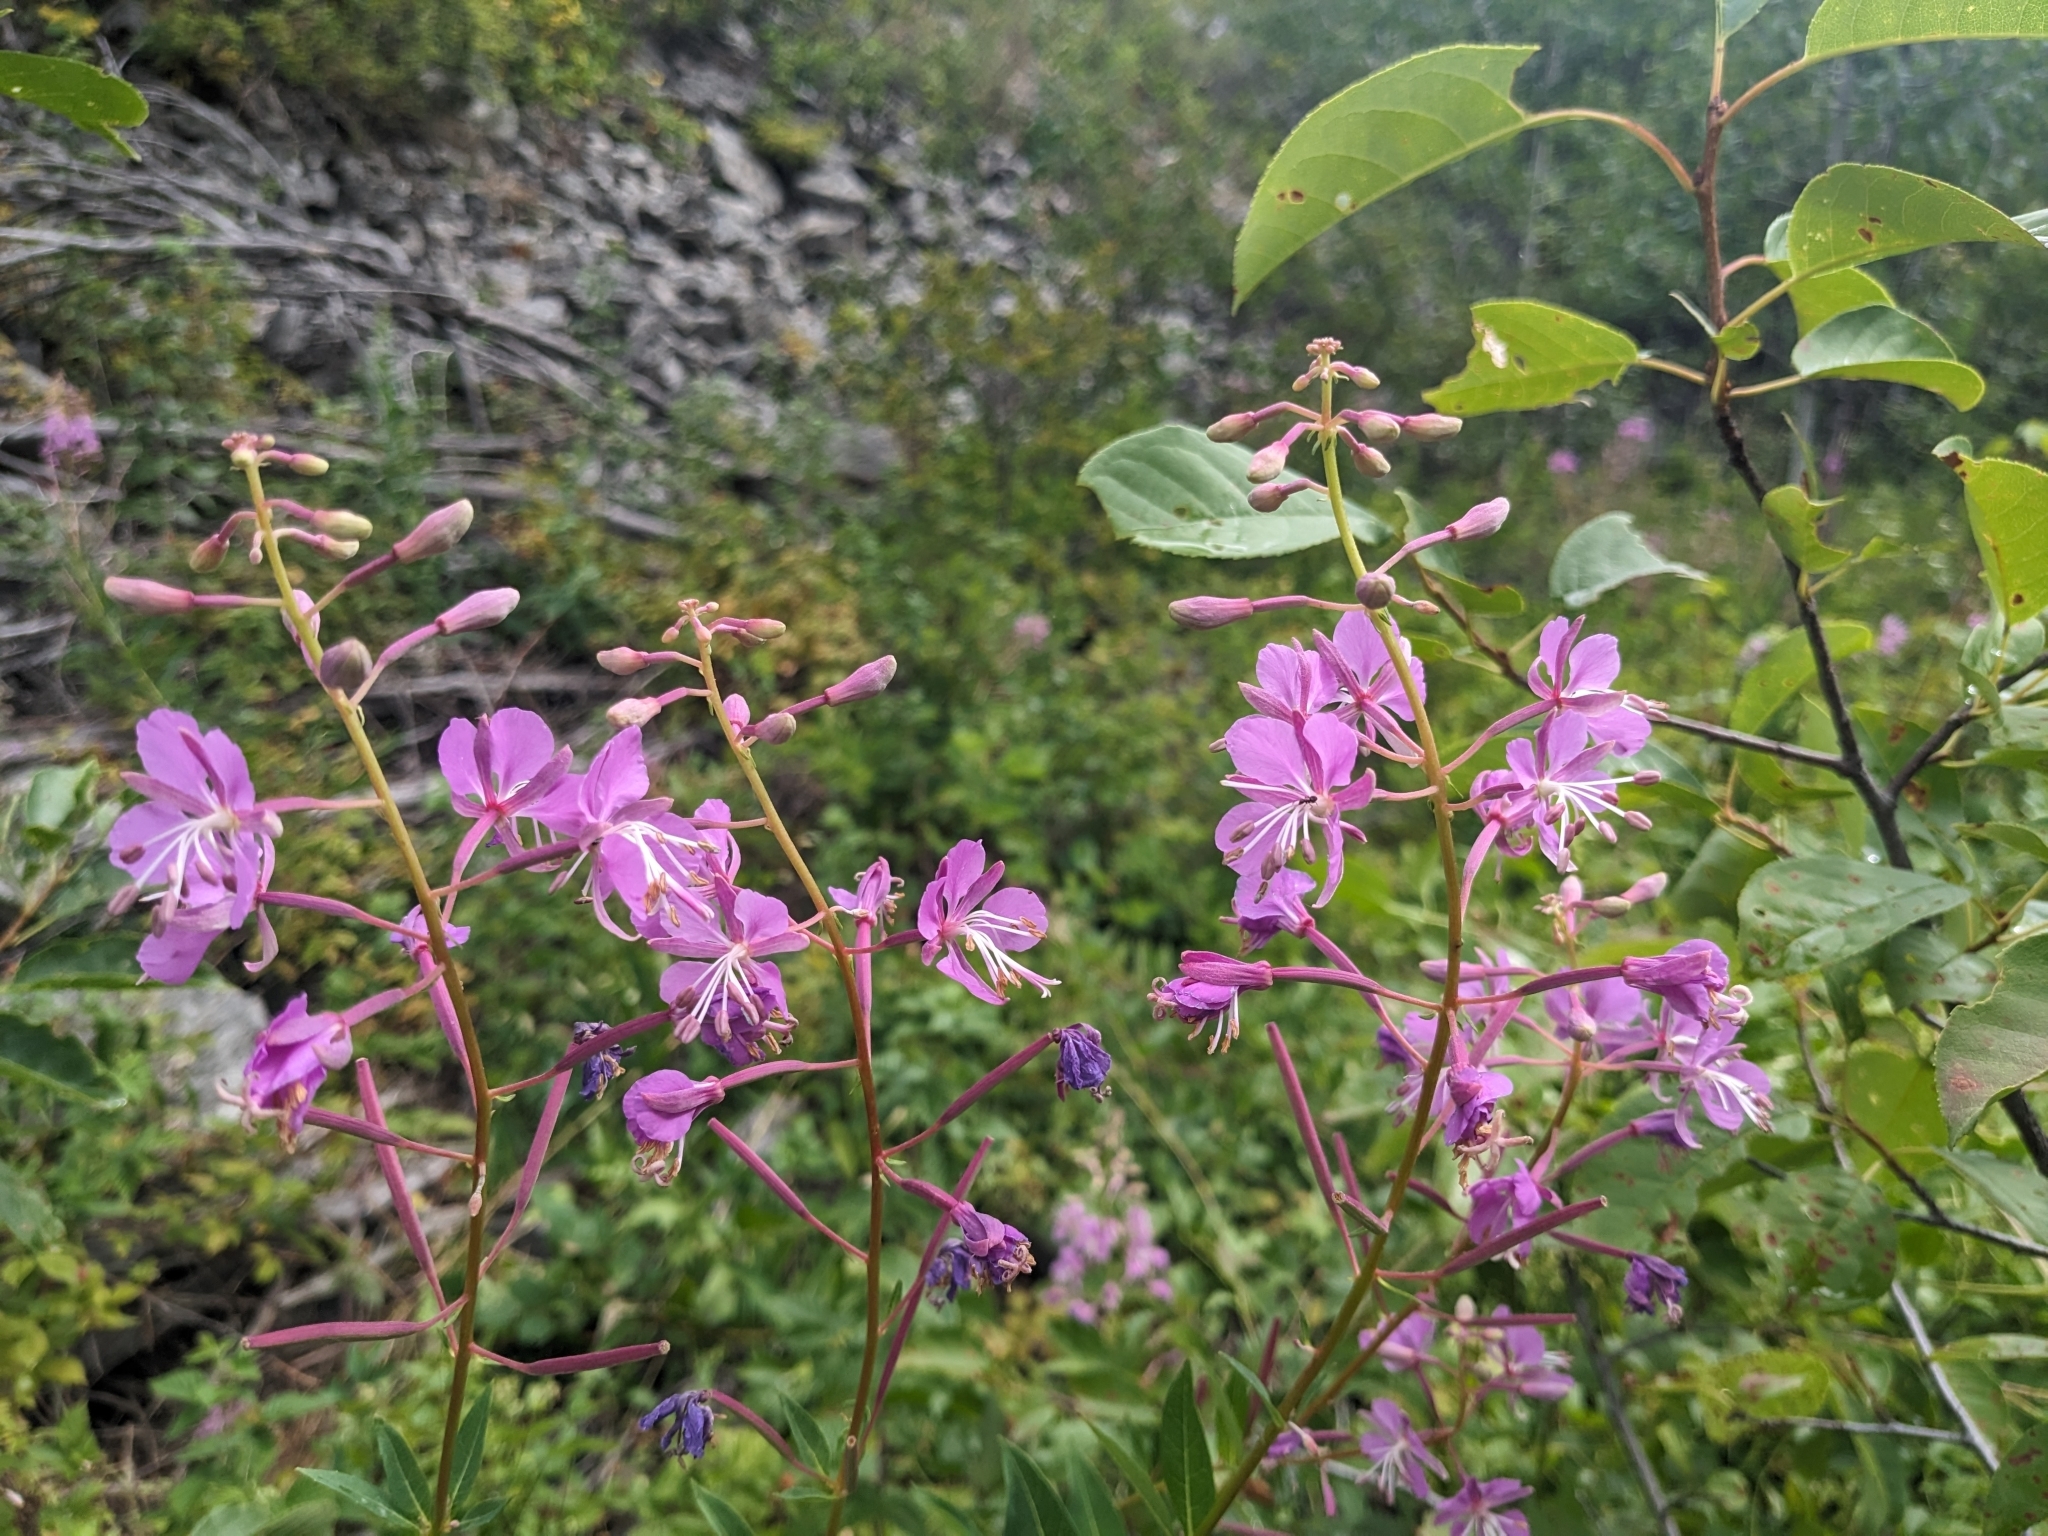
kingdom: Plantae
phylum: Tracheophyta
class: Magnoliopsida
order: Myrtales
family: Onagraceae
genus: Chamaenerion
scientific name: Chamaenerion angustifolium
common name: Fireweed
